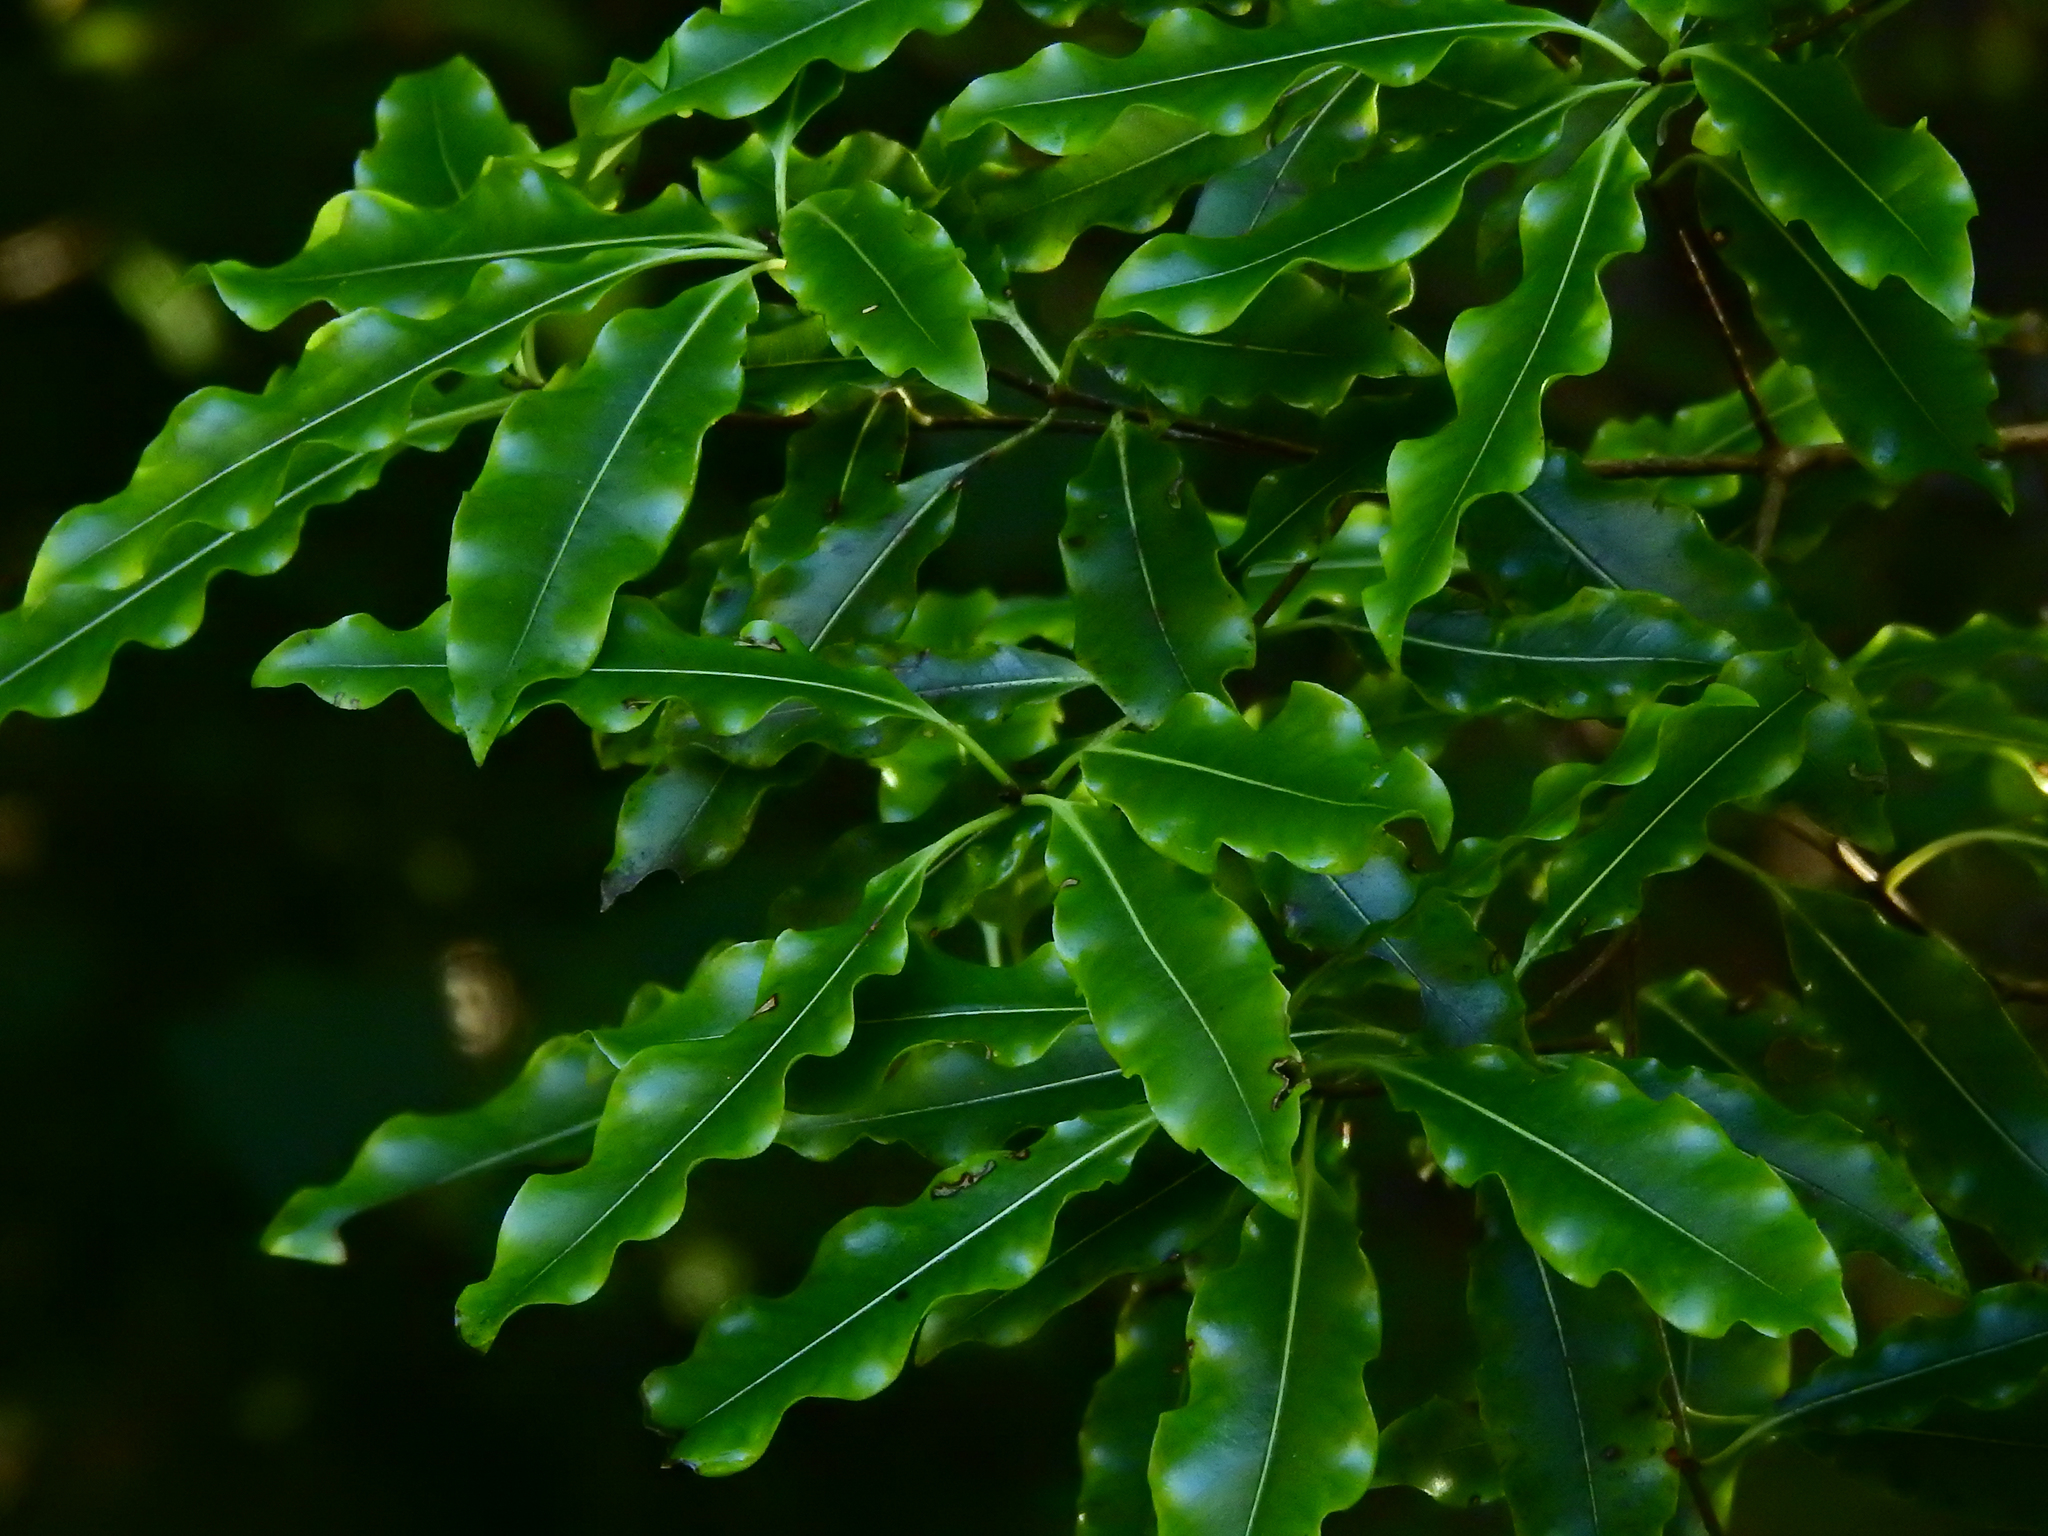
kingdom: Plantae
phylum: Tracheophyta
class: Magnoliopsida
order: Apiales
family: Pittosporaceae
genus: Pittosporum
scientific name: Pittosporum eugenioides
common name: Lemonwood
